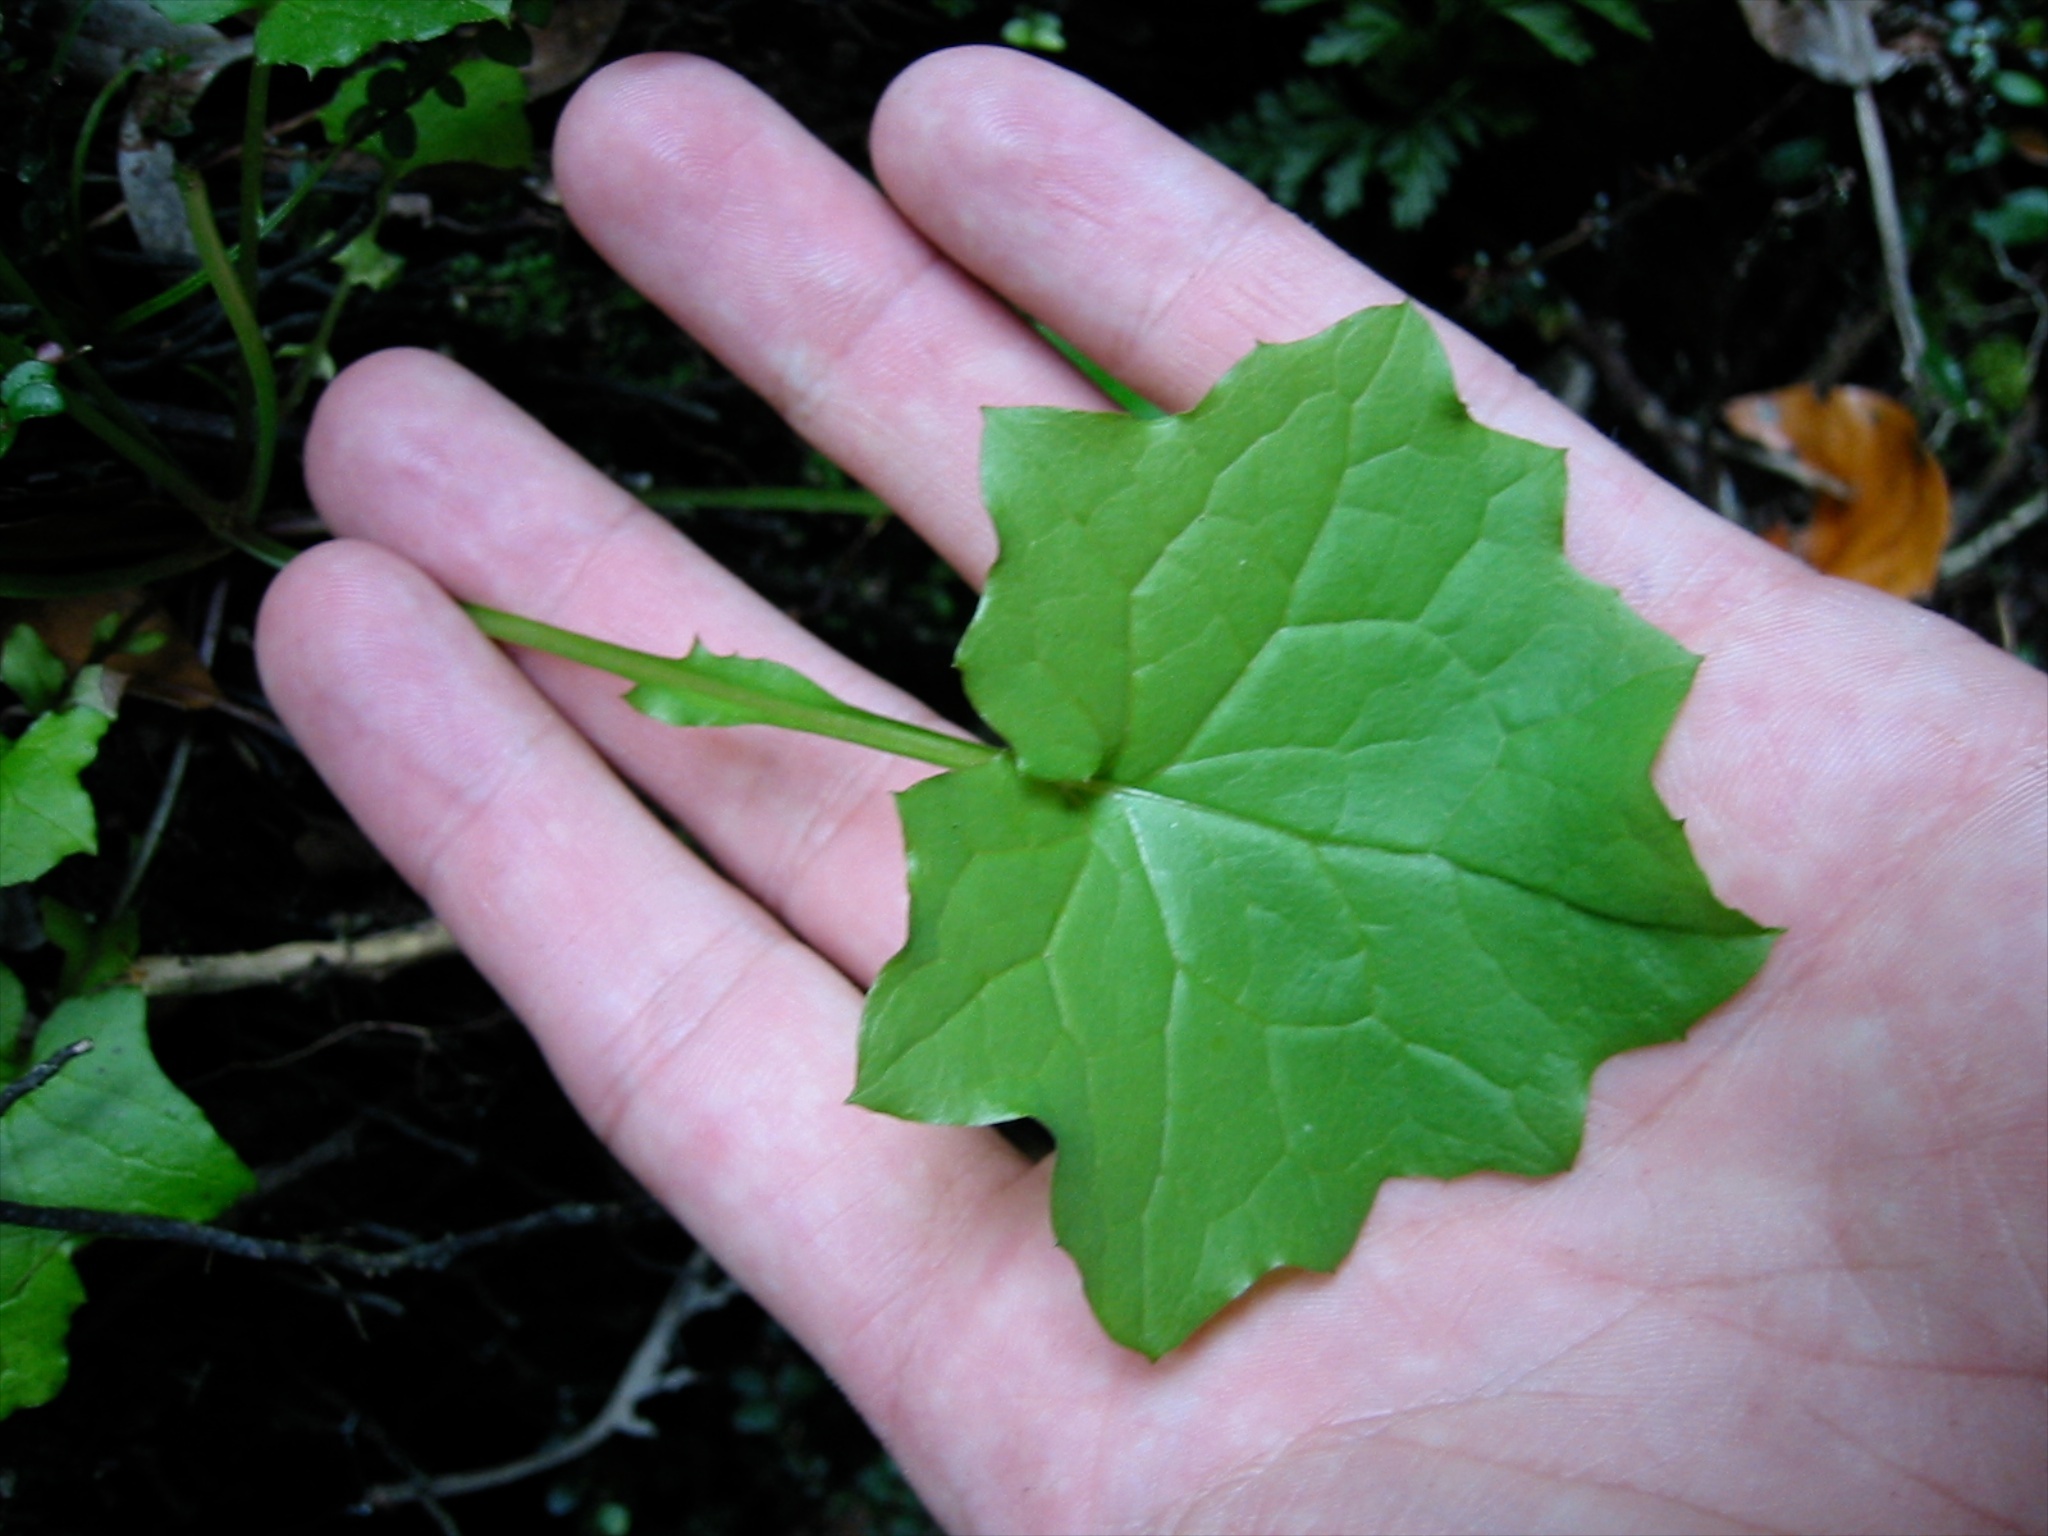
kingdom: Plantae
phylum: Tracheophyta
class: Magnoliopsida
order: Asterales
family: Asteraceae
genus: Mycelis
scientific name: Mycelis muralis
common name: Wall lettuce
